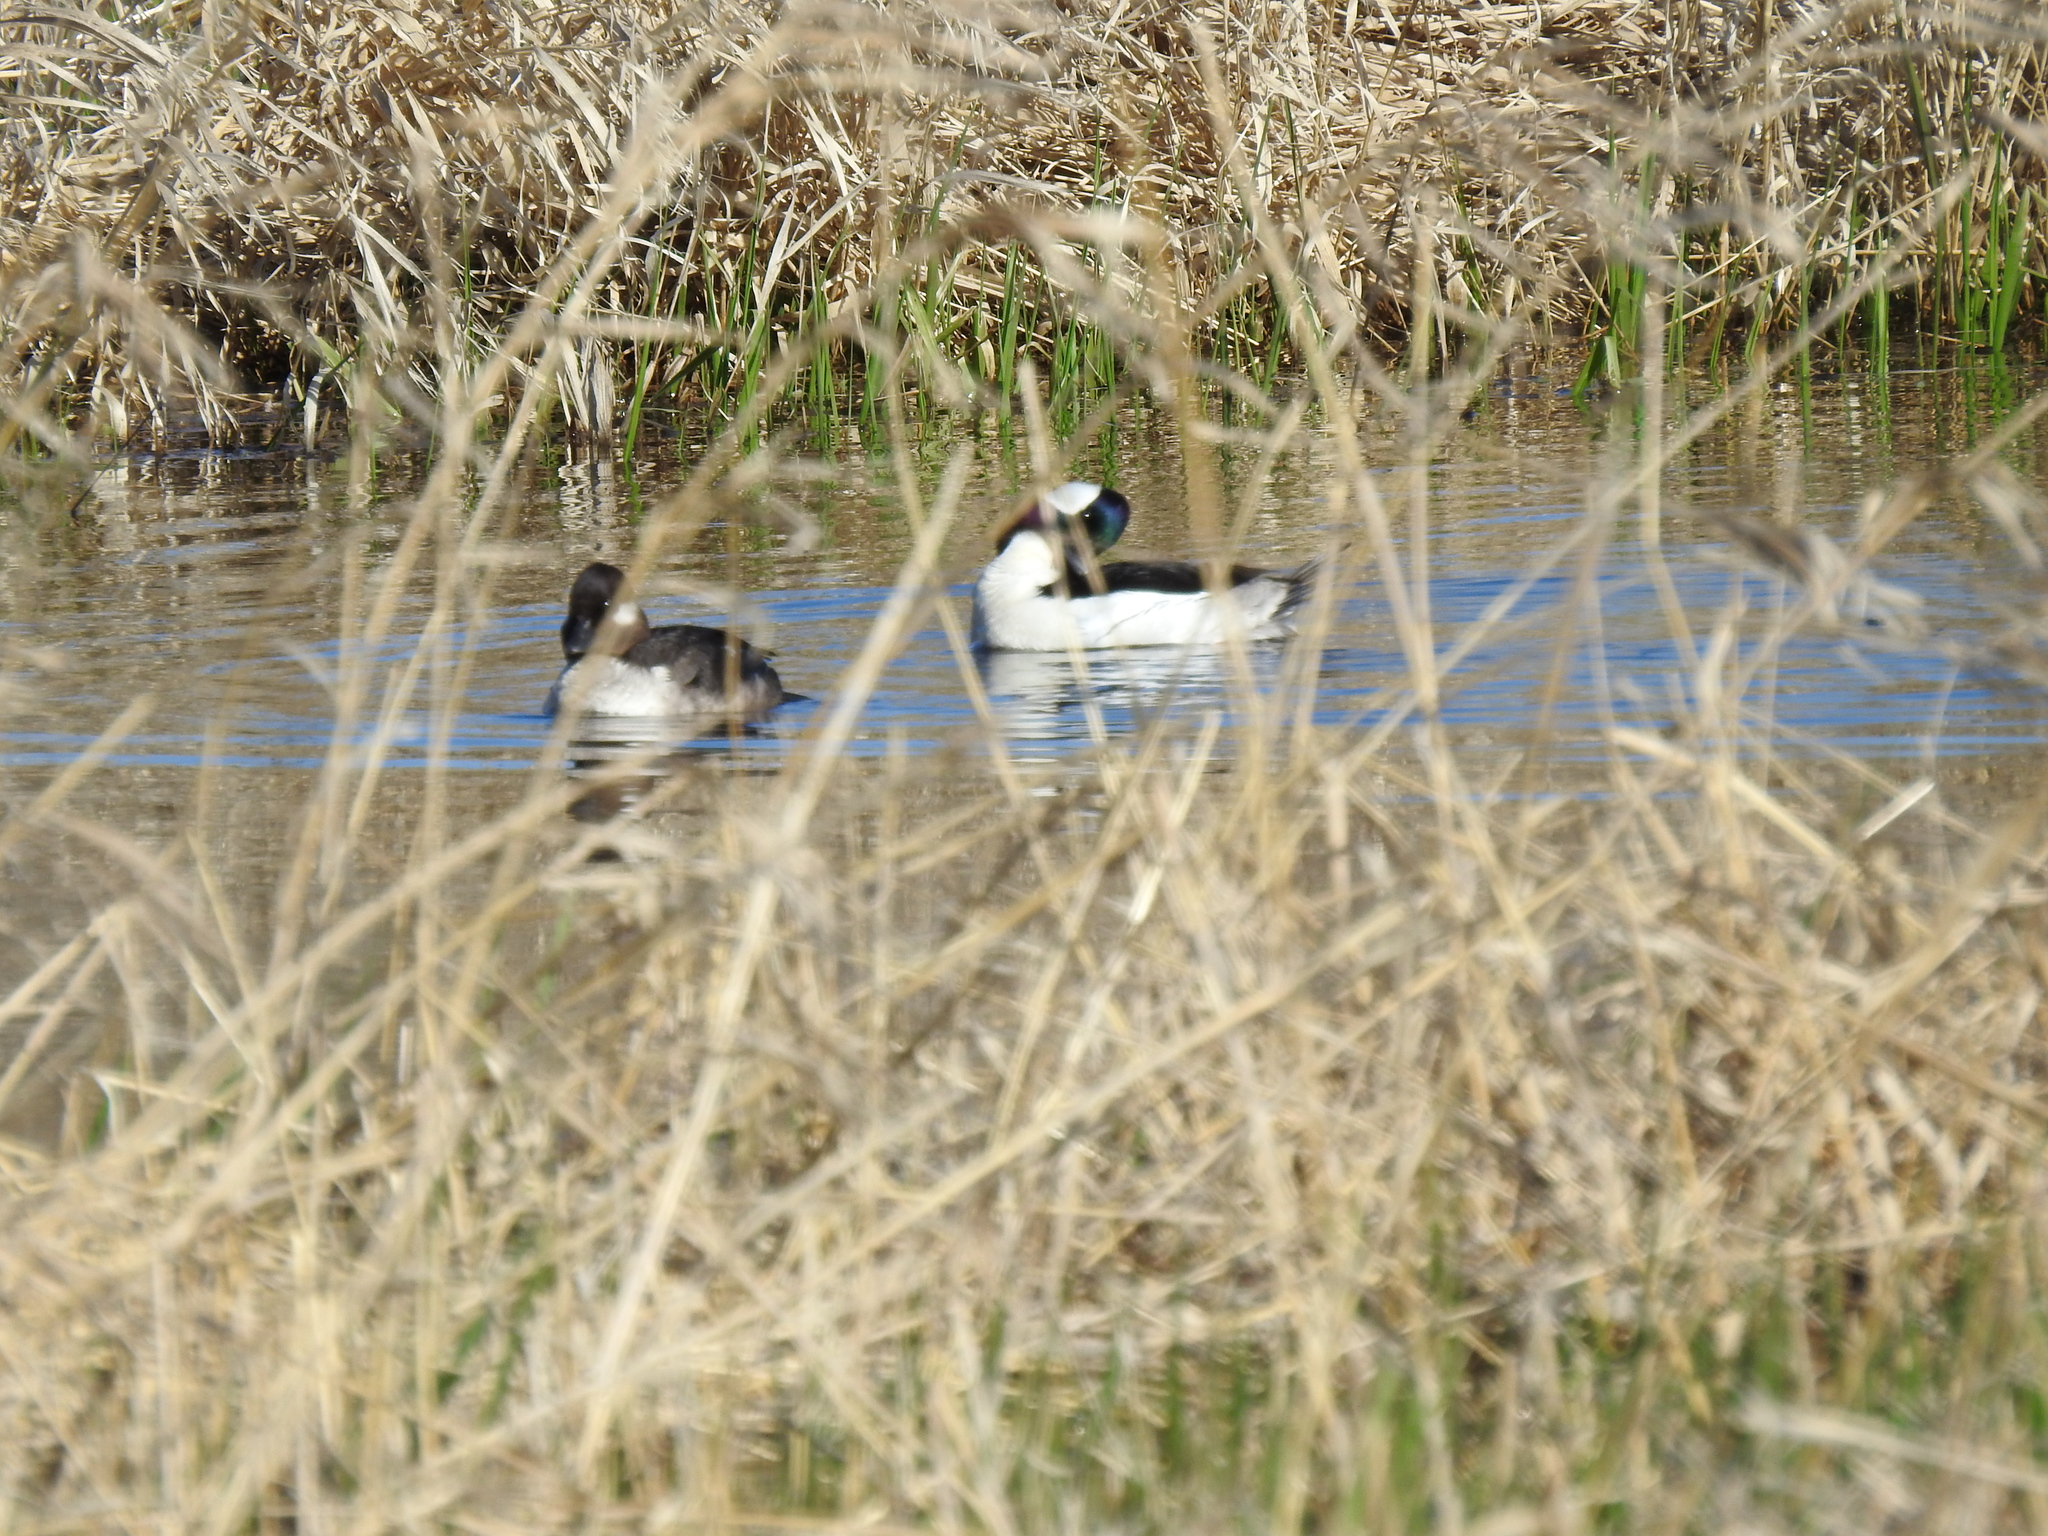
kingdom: Animalia
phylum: Chordata
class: Aves
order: Anseriformes
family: Anatidae
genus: Bucephala
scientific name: Bucephala albeola
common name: Bufflehead
